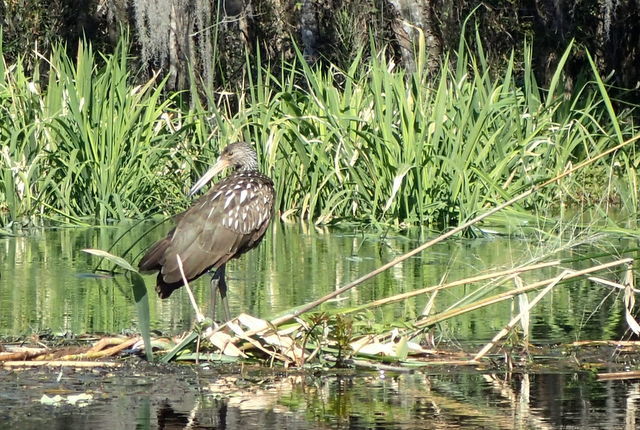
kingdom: Animalia
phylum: Chordata
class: Aves
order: Gruiformes
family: Aramidae
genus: Aramus
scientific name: Aramus guarauna
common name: Limpkin
